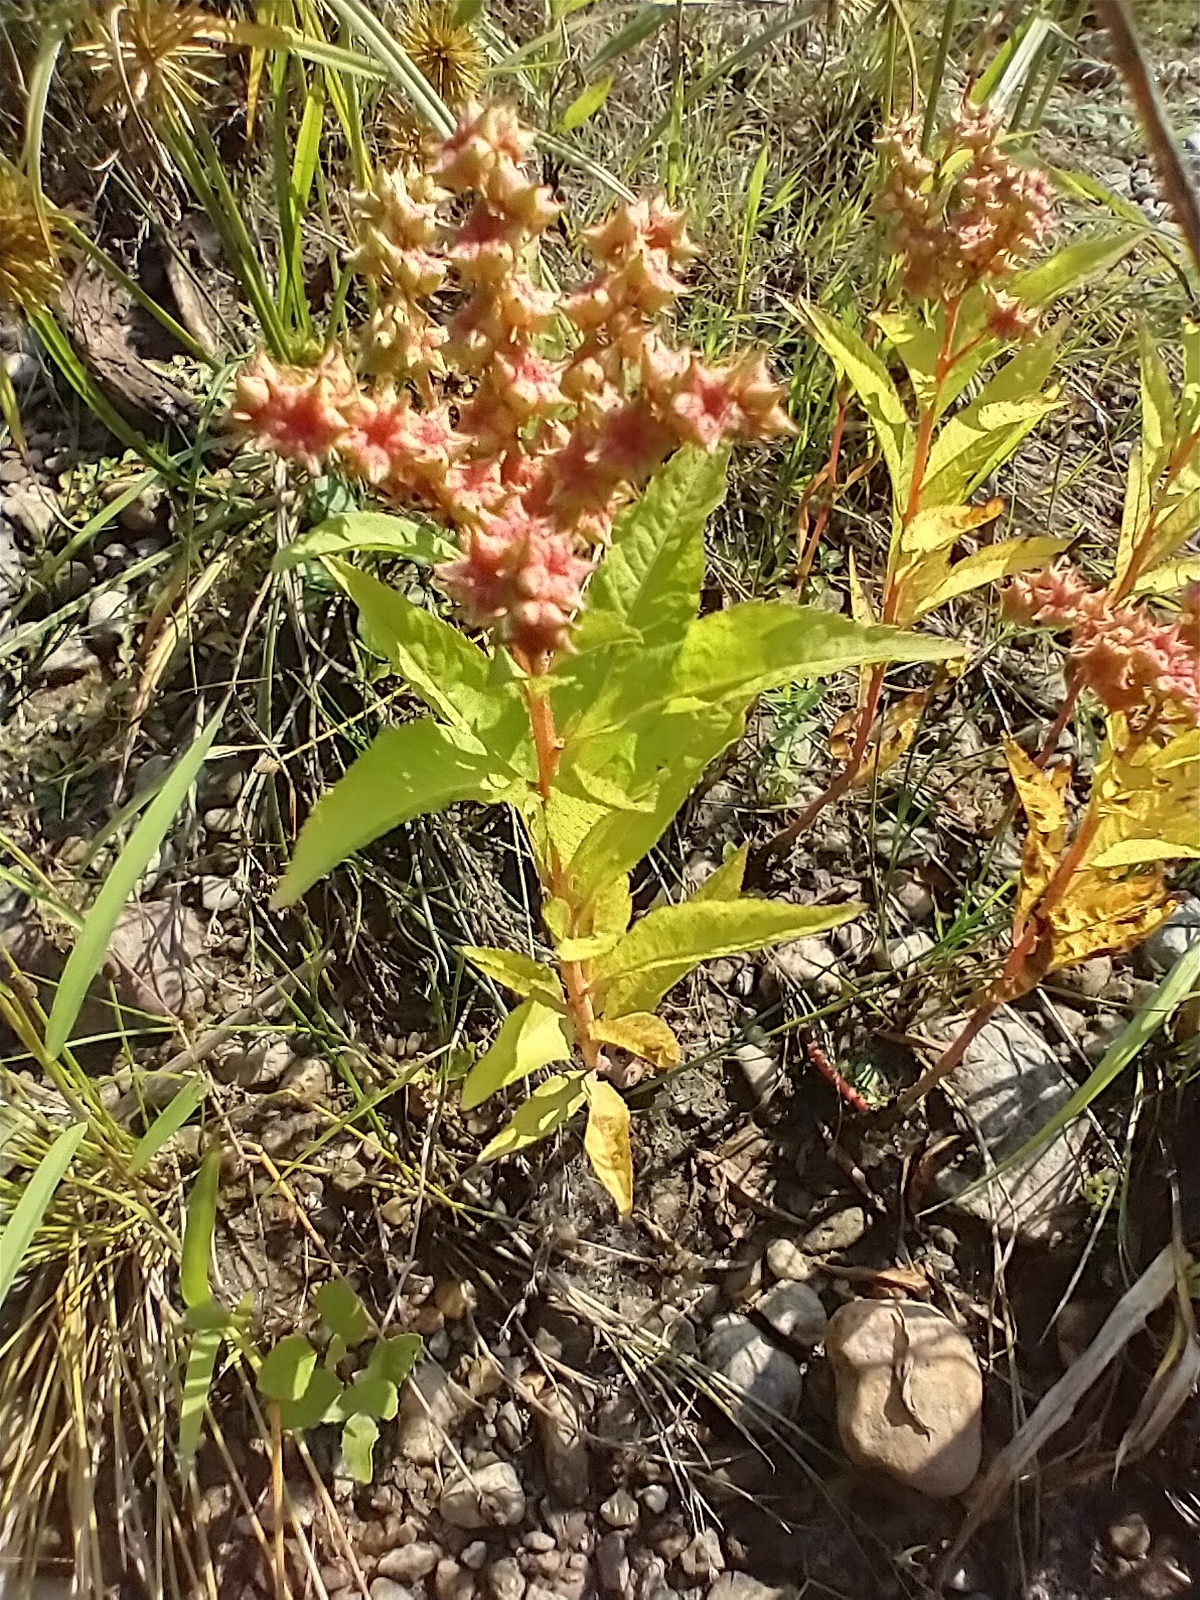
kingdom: Plantae
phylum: Tracheophyta
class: Magnoliopsida
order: Saxifragales
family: Penthoraceae
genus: Penthorum
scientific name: Penthorum sedoides
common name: Ditch stonecrop
